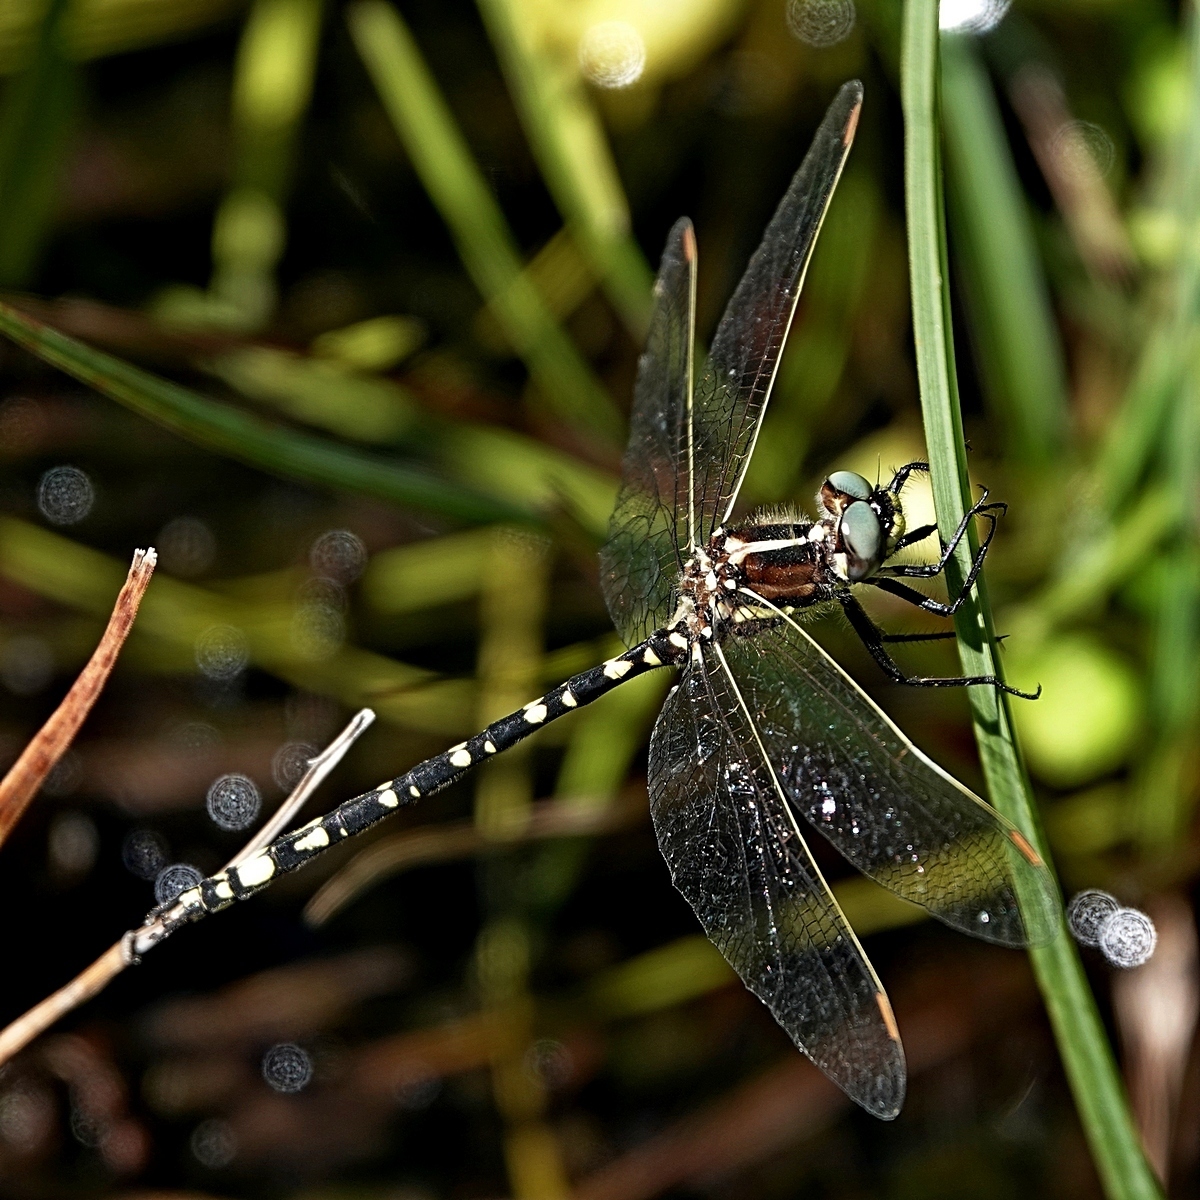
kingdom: Animalia
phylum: Arthropoda
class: Insecta
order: Odonata
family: Synthemistidae
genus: Synthemis
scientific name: Synthemis eustalacta
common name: Swamp tigertail
